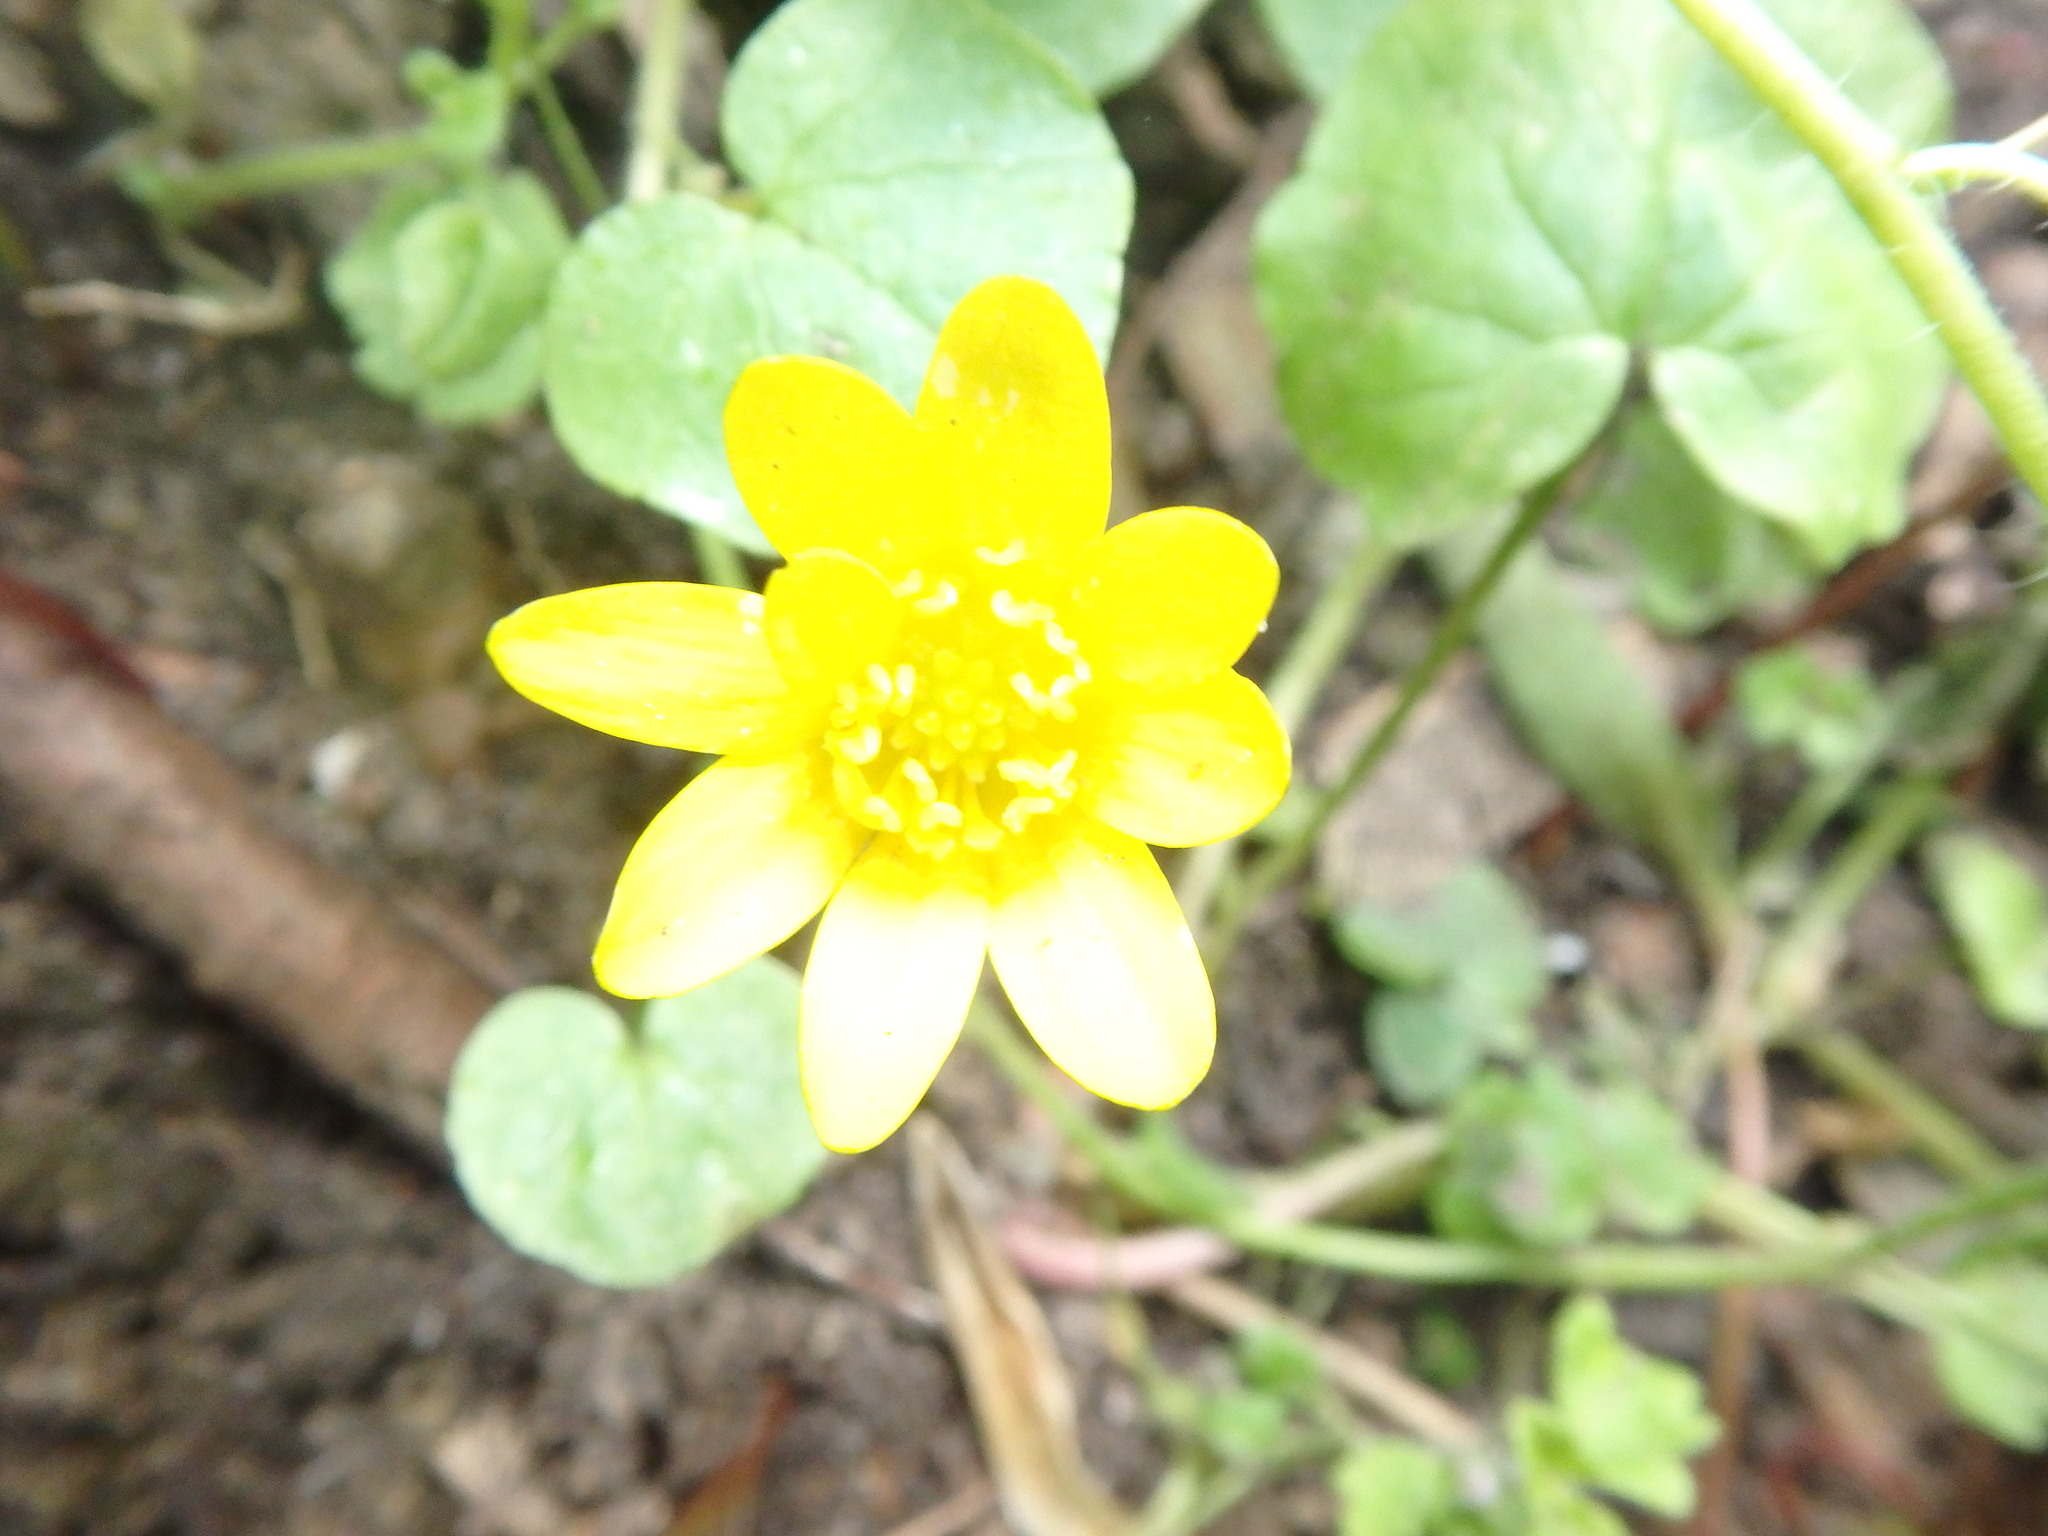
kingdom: Plantae
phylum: Tracheophyta
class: Magnoliopsida
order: Ranunculales
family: Ranunculaceae
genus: Ficaria
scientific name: Ficaria verna
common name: Lesser celandine
